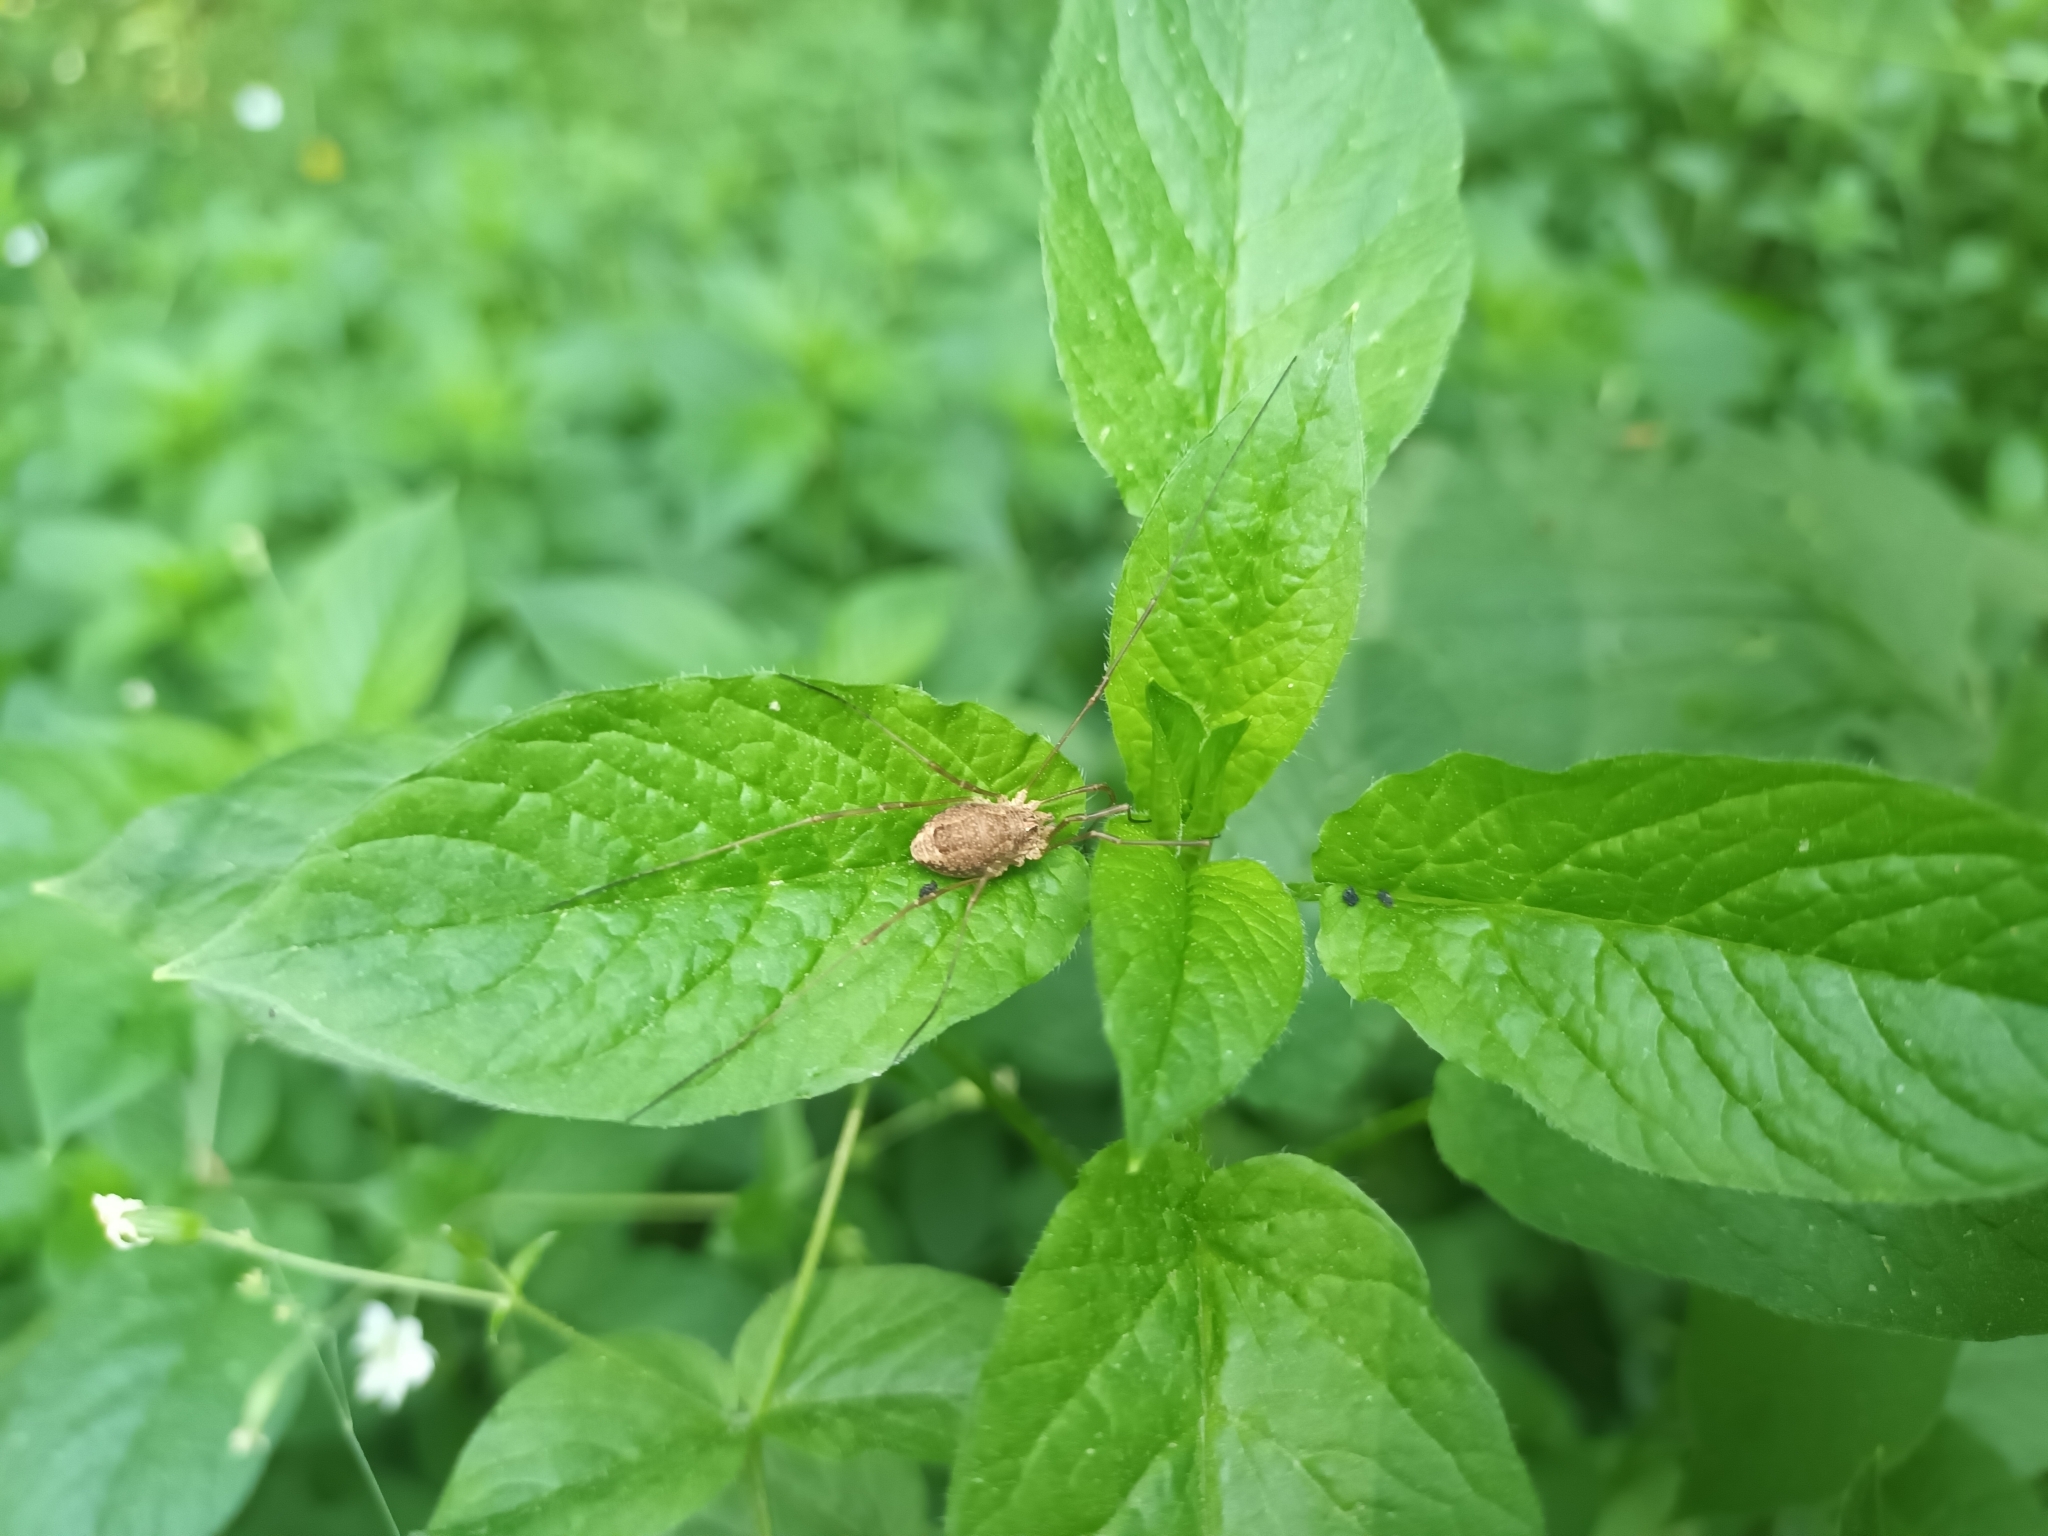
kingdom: Animalia
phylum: Arthropoda
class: Arachnida
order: Opiliones
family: Phalangiidae
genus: Rilaena
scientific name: Rilaena triangularis
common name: Spring harvestman
